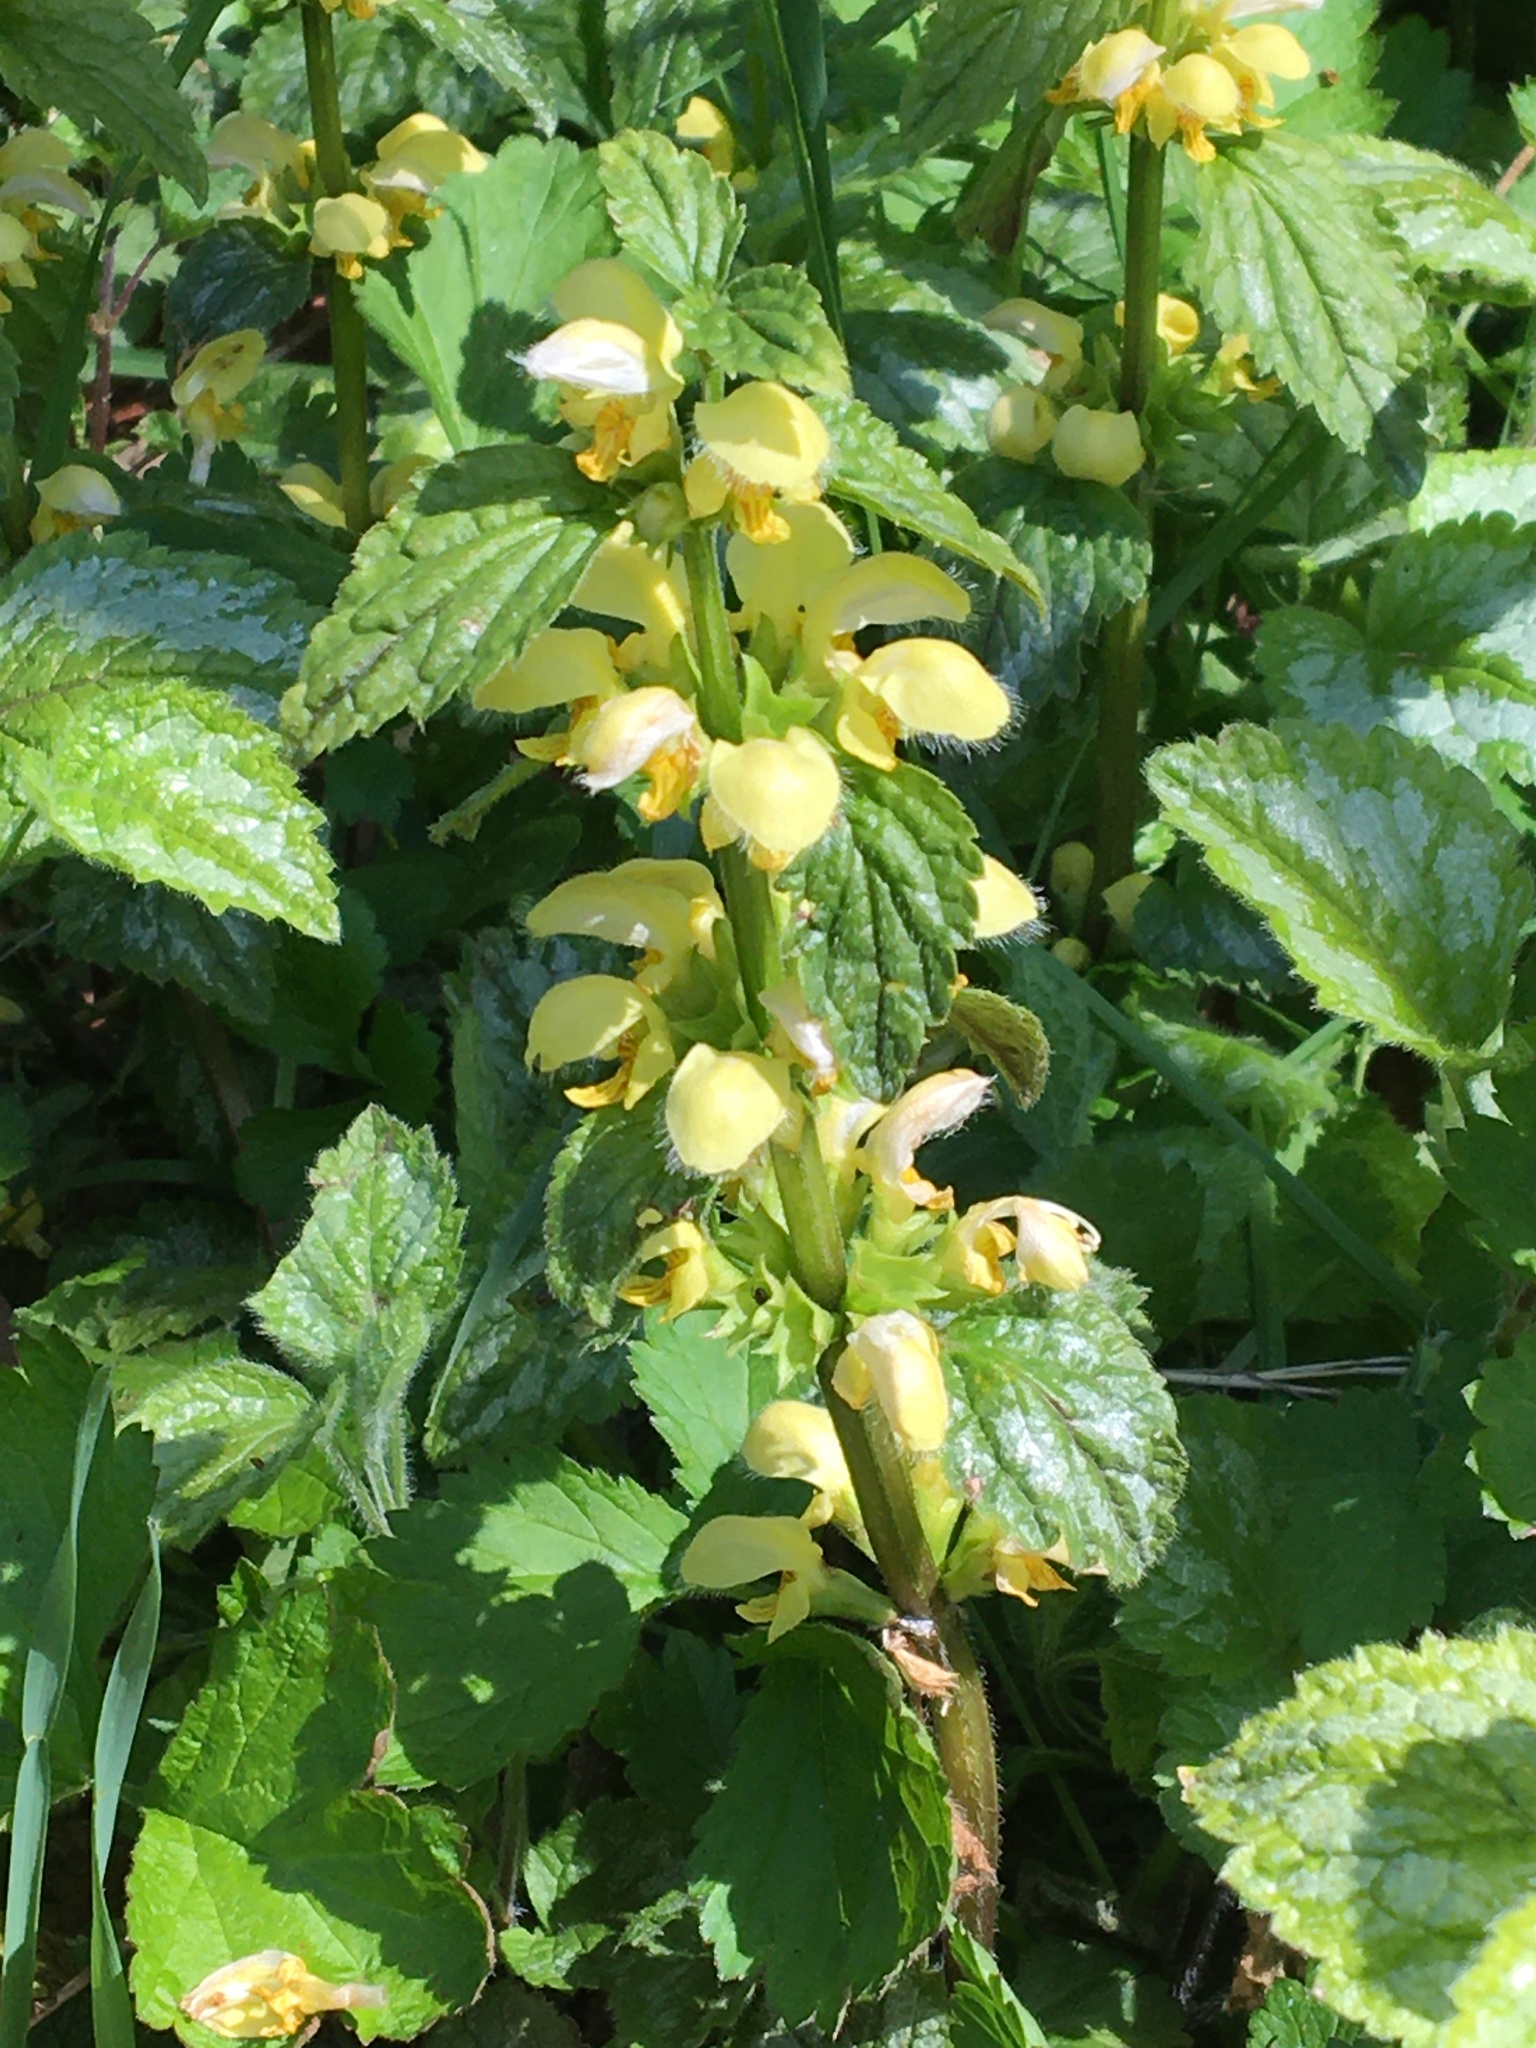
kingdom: Plantae
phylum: Tracheophyta
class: Magnoliopsida
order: Lamiales
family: Lamiaceae
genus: Lamium
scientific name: Lamium galeobdolon
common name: Yellow archangel
